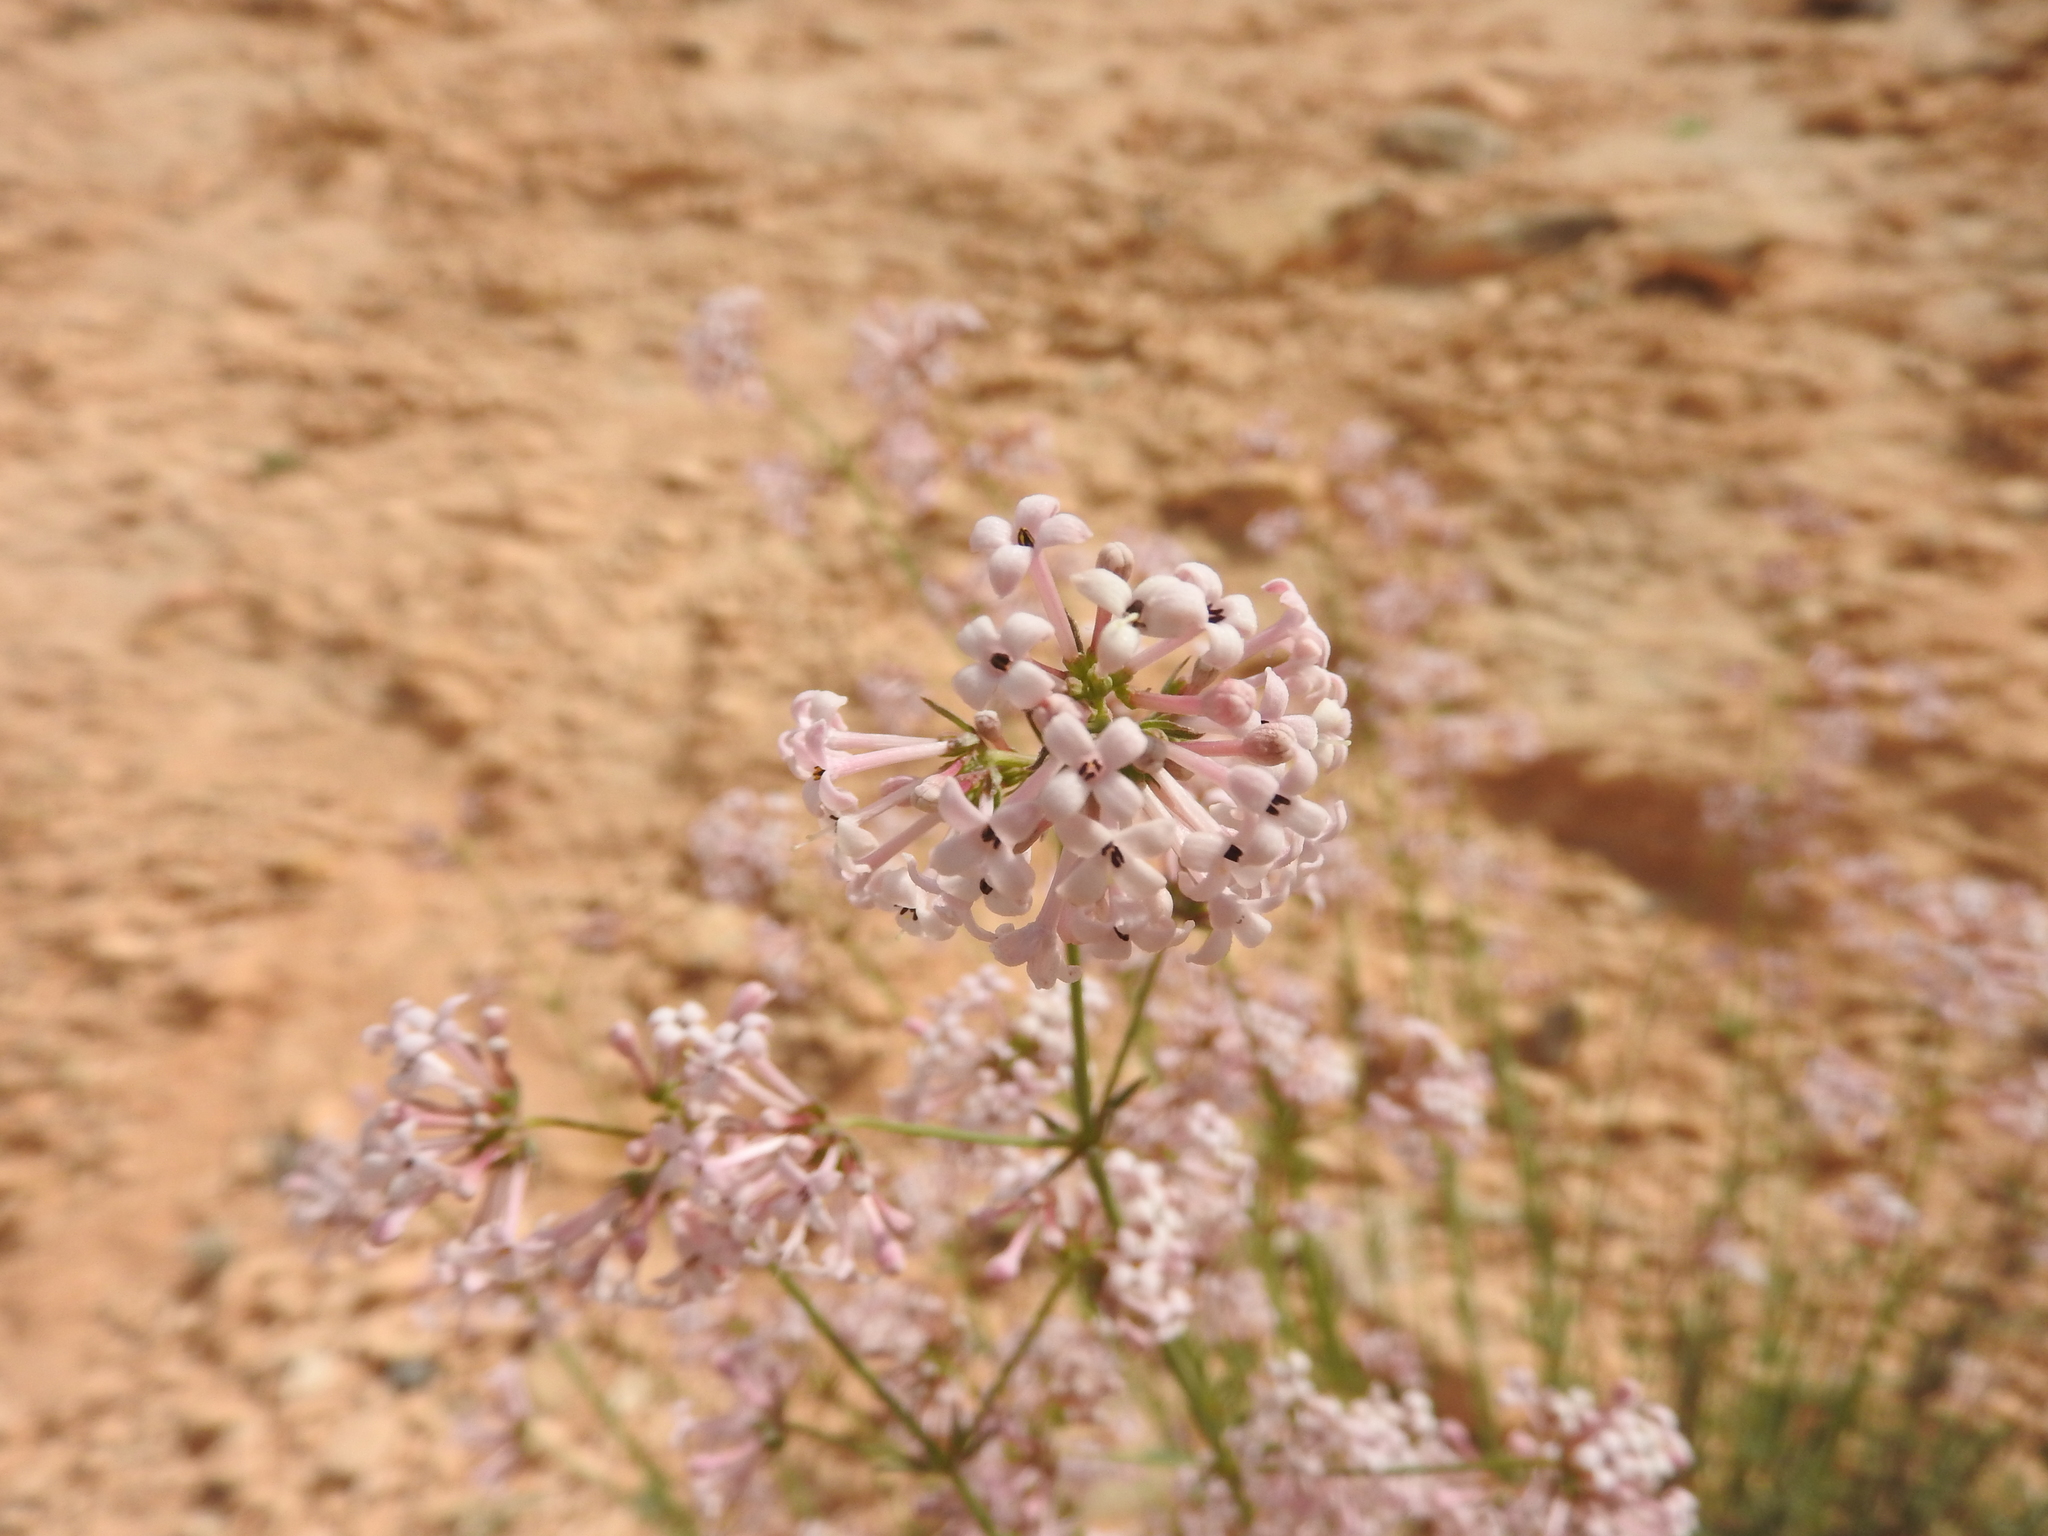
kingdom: Plantae
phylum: Tracheophyta
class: Magnoliopsida
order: Gentianales
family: Rubiaceae
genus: Hexaphylla
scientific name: Hexaphylla hirsuta
